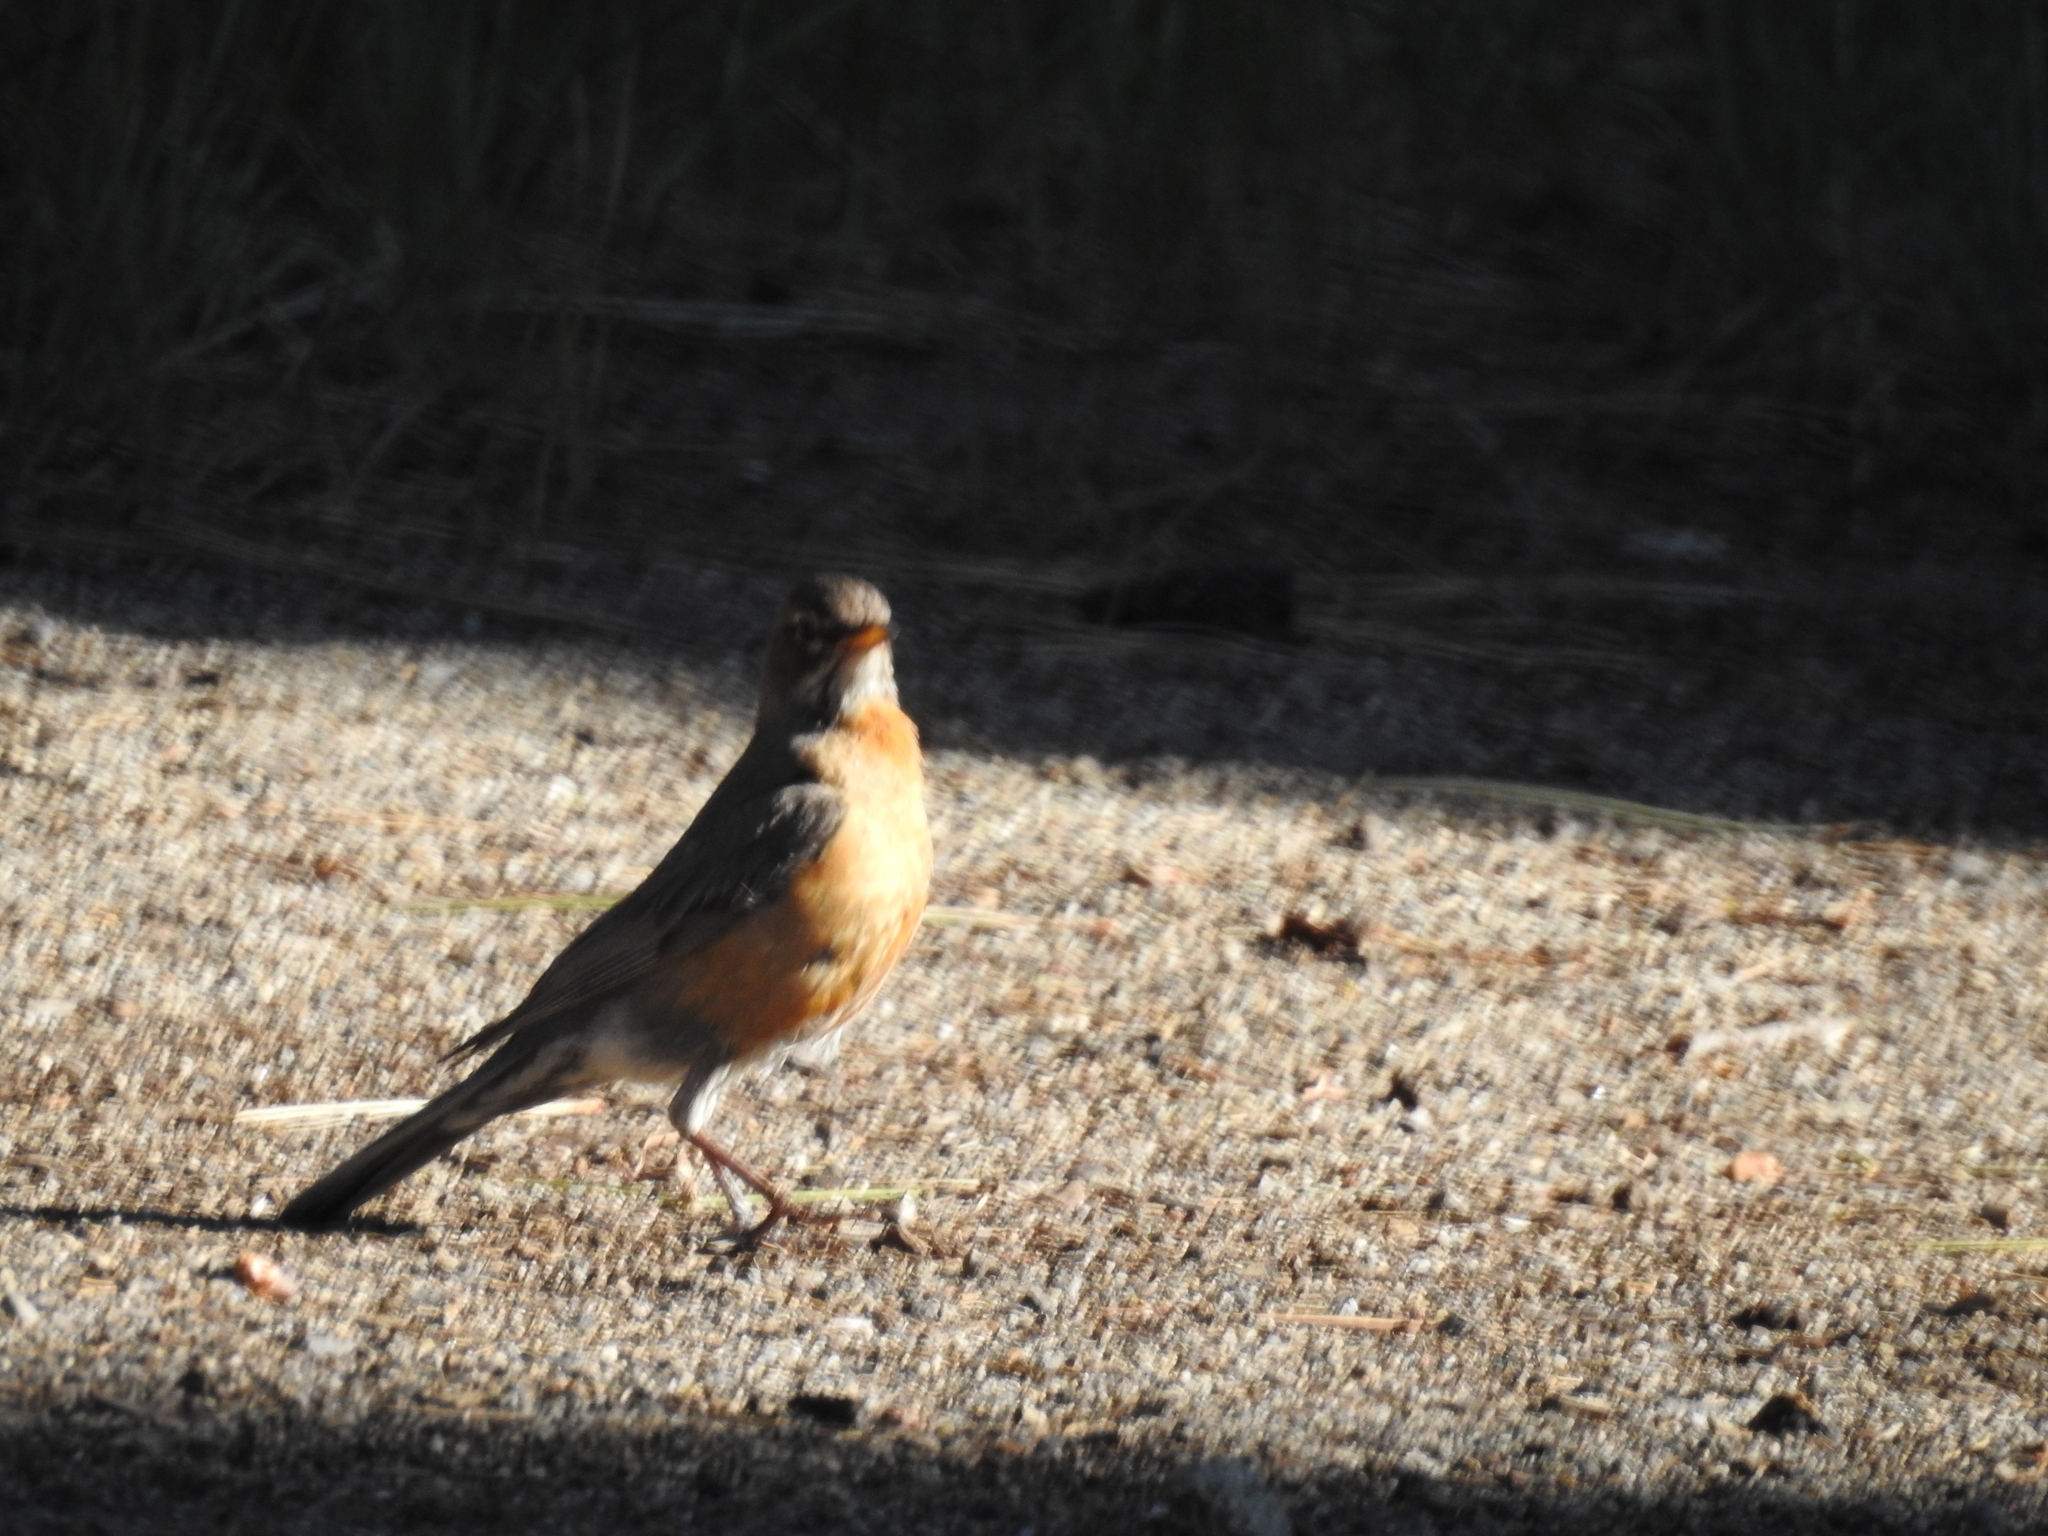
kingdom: Animalia
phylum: Chordata
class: Aves
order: Passeriformes
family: Turdidae
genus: Turdus
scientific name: Turdus migratorius
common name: American robin
